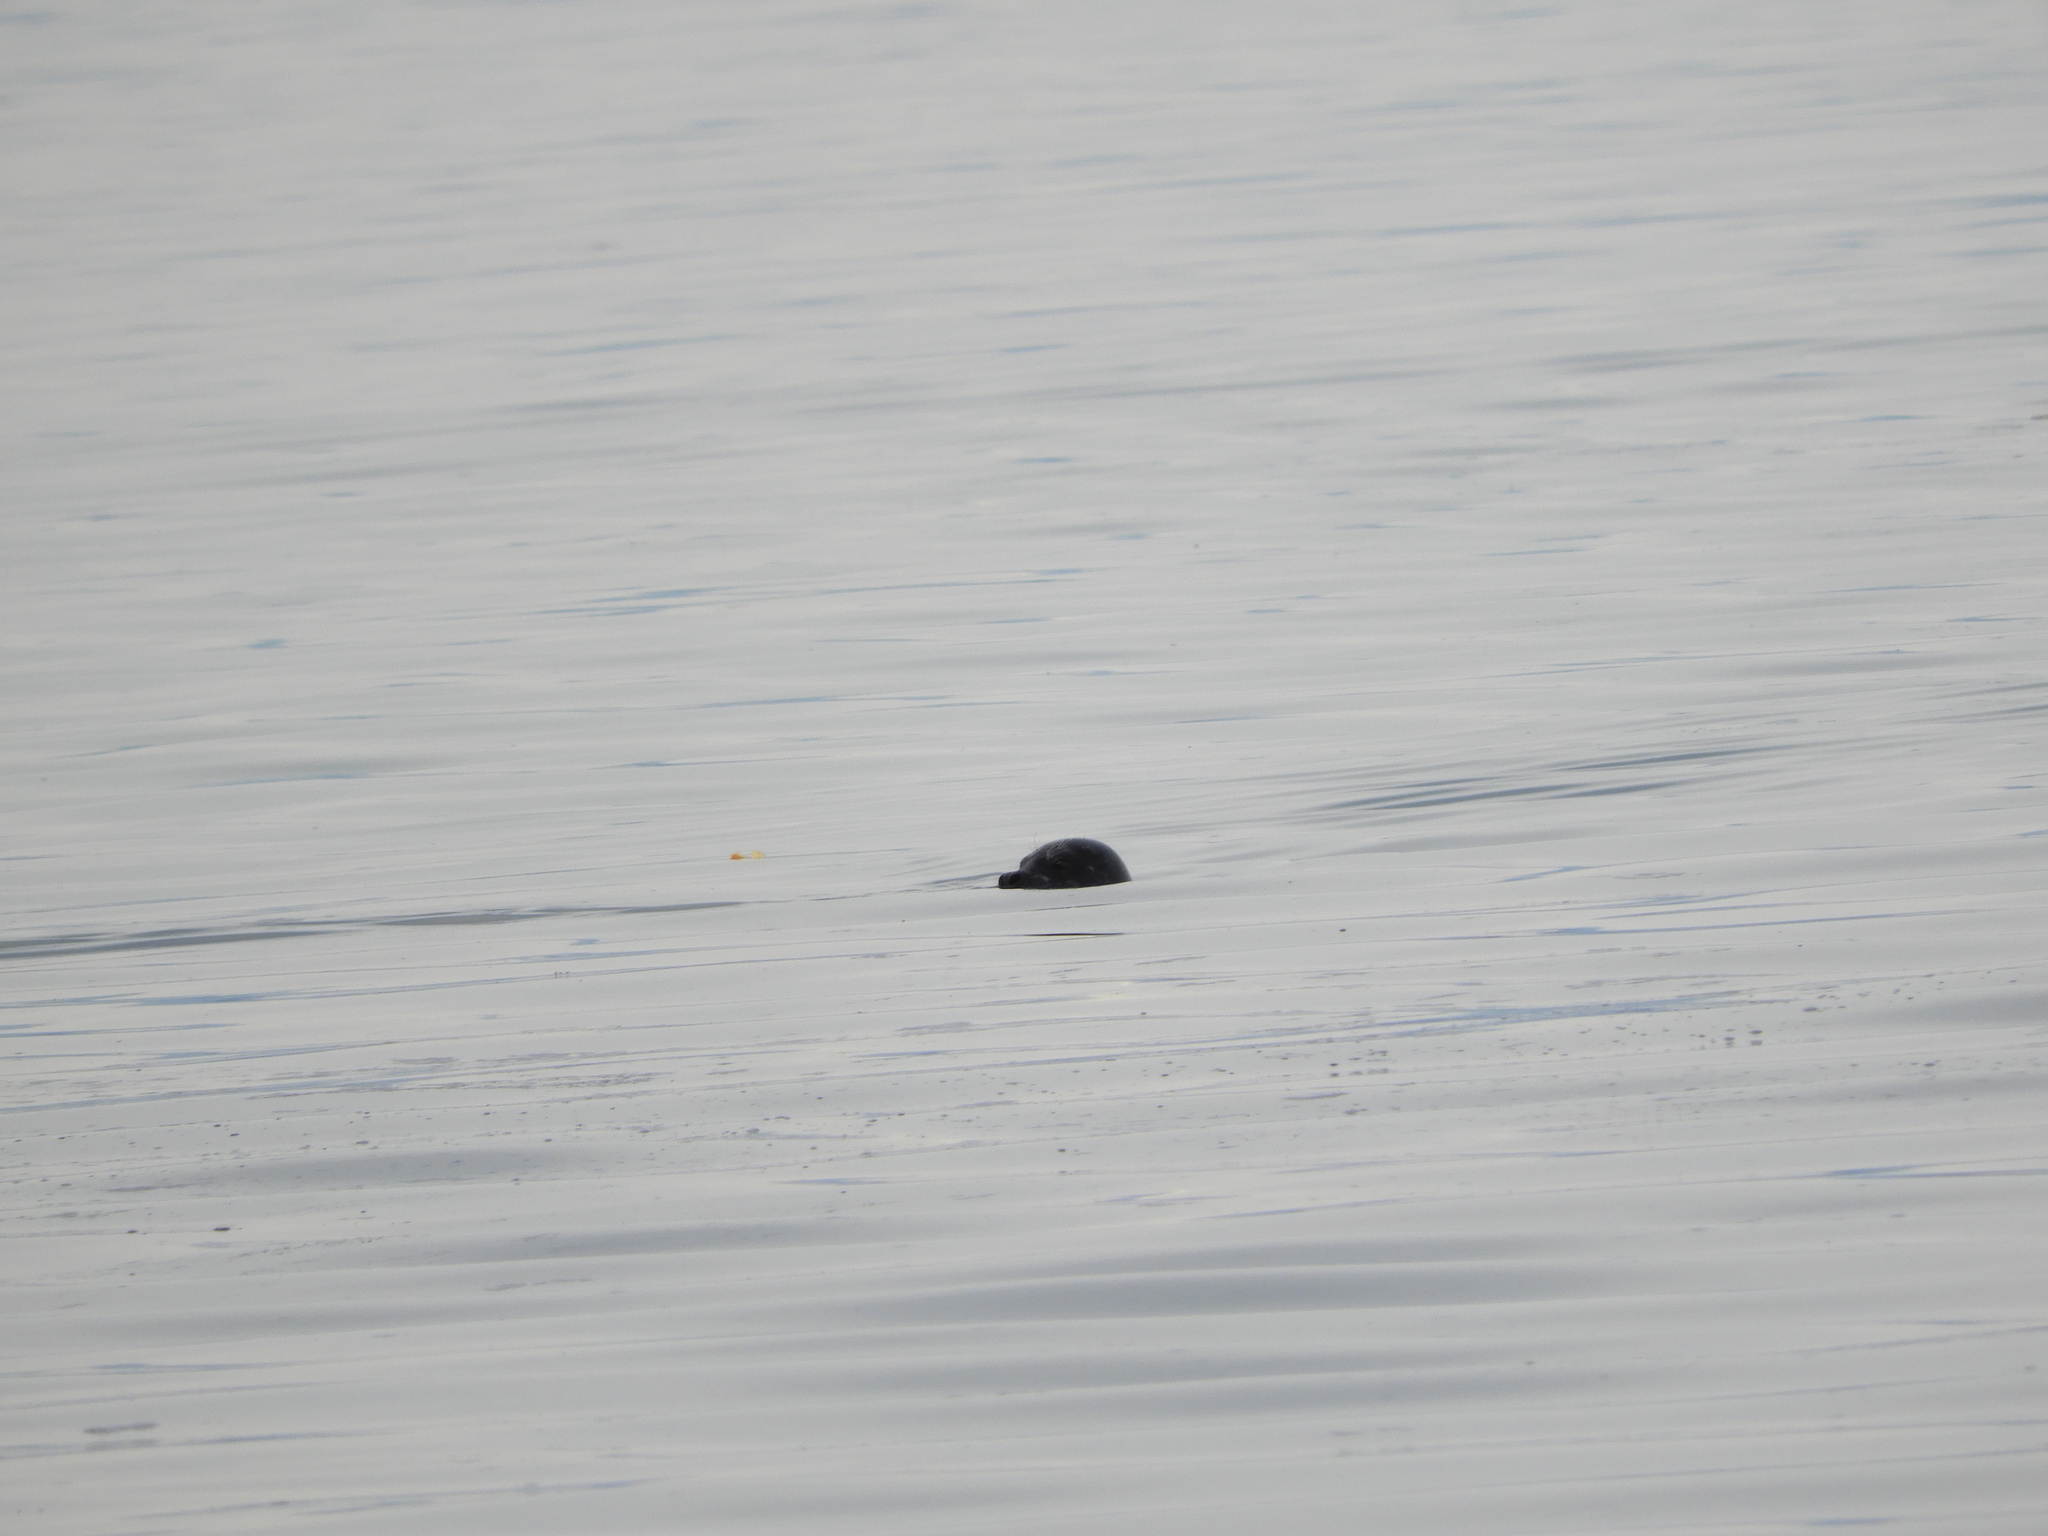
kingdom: Animalia
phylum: Chordata
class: Mammalia
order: Carnivora
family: Phocidae
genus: Phoca
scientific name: Phoca vitulina
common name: Harbor seal
